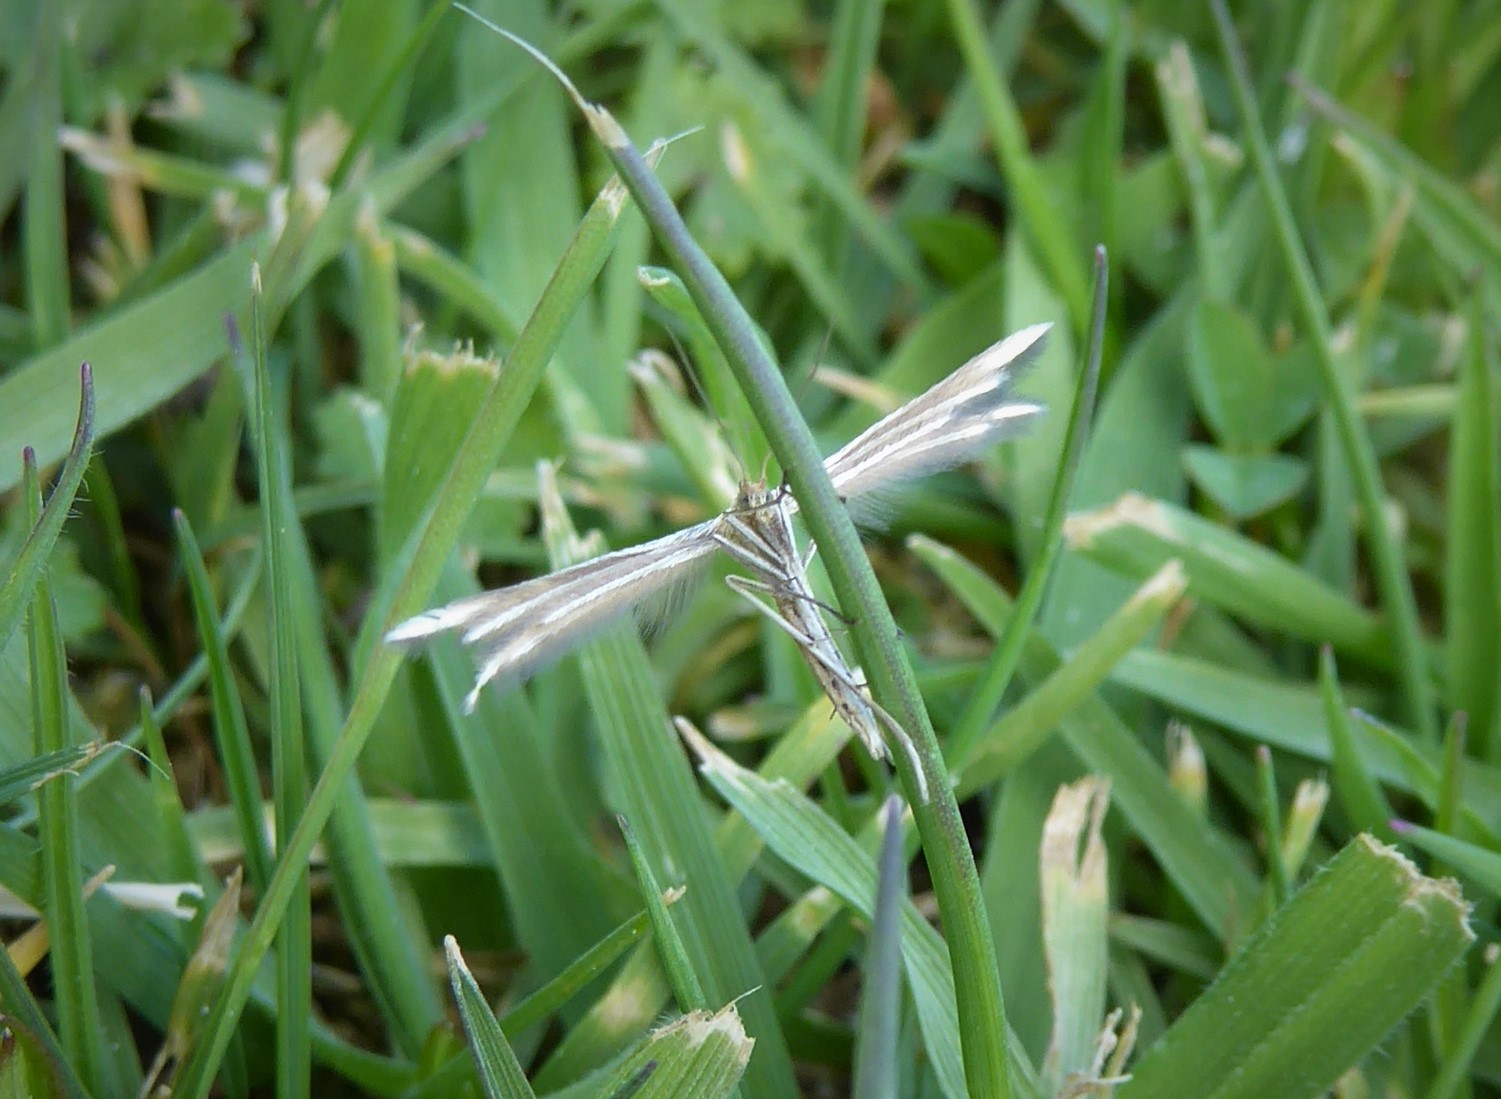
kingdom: Animalia
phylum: Arthropoda
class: Insecta
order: Lepidoptera
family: Pterophoridae
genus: Pterophorus
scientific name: Pterophorus innotatalis
